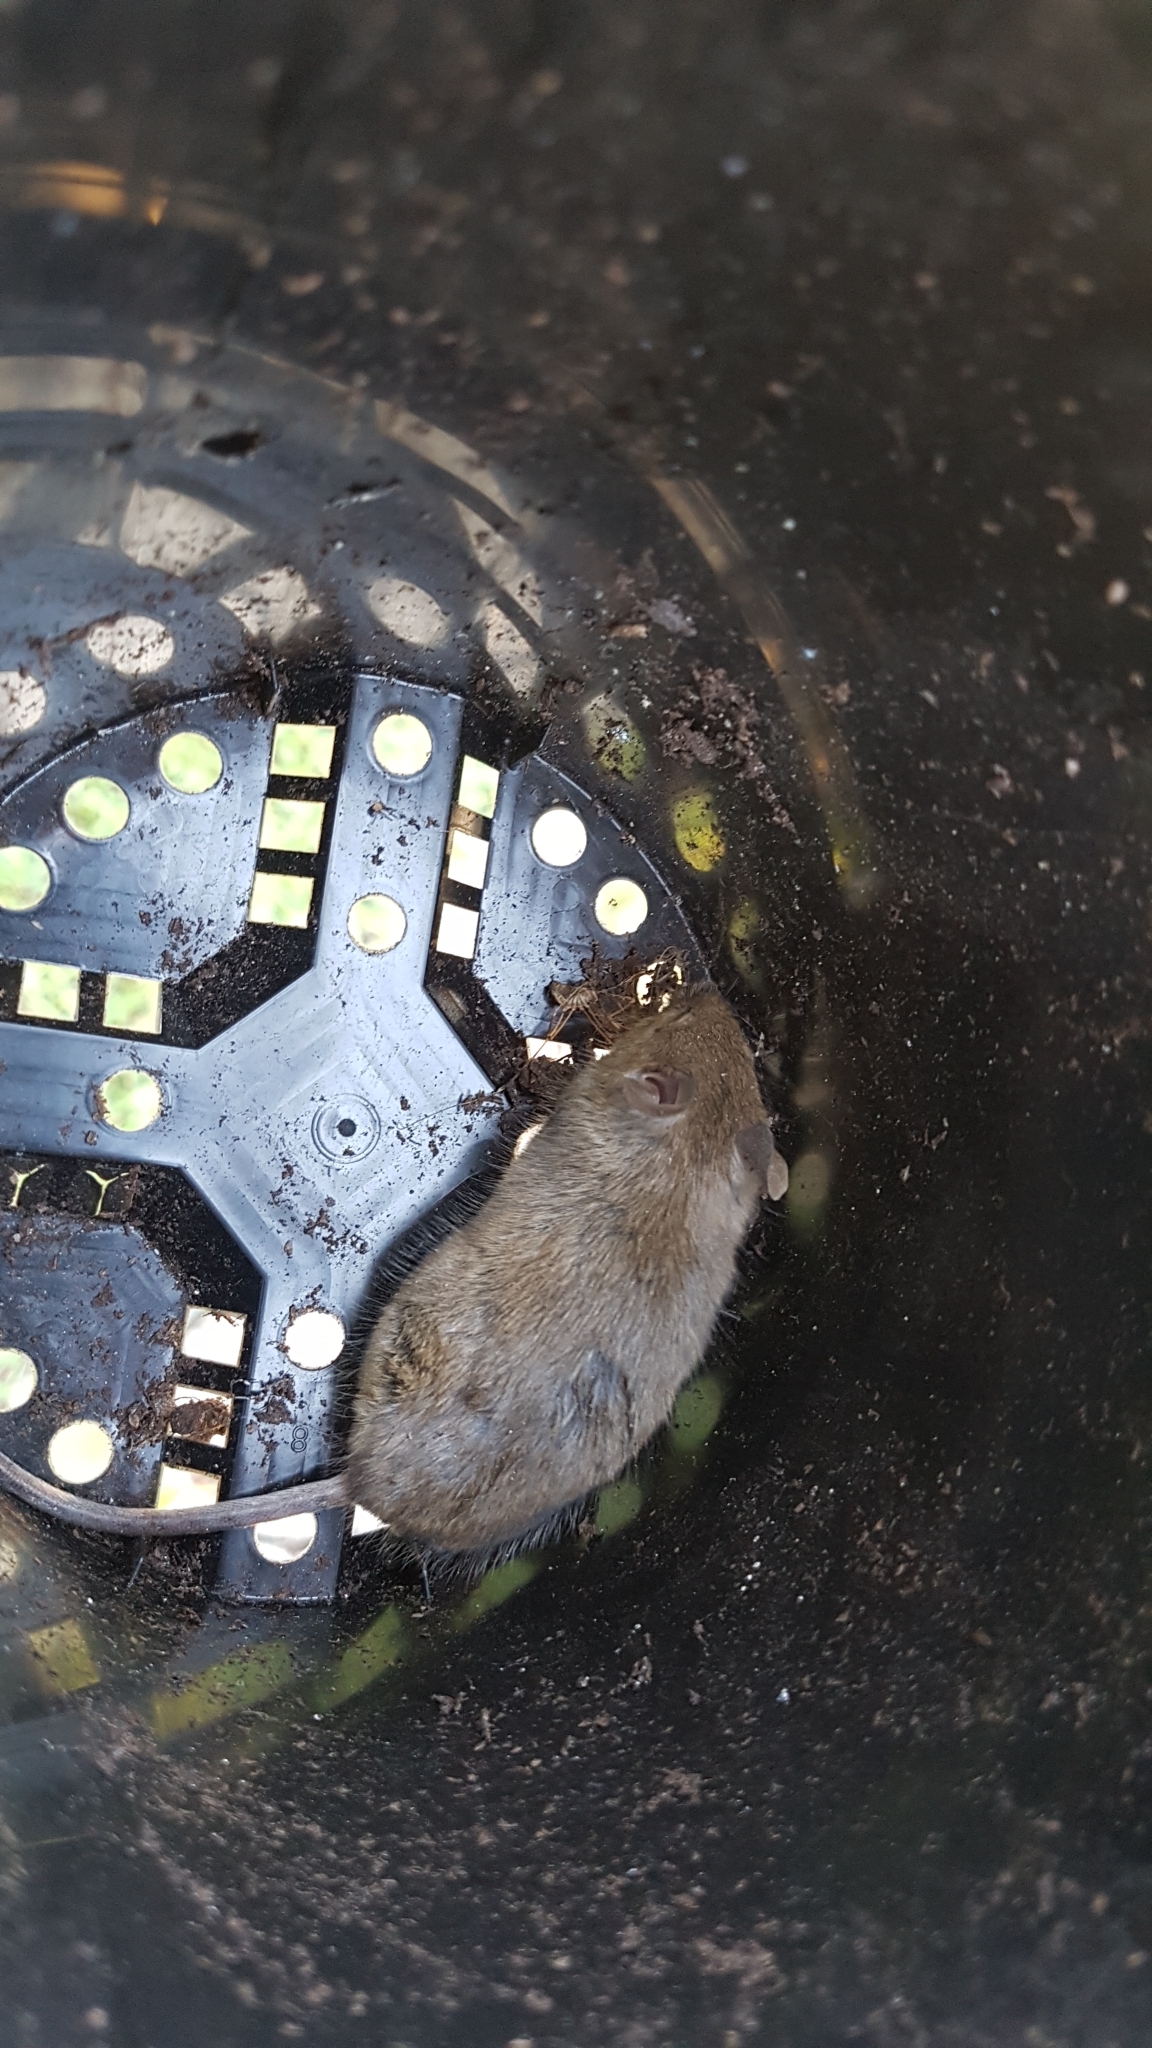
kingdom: Animalia
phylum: Chordata
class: Mammalia
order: Rodentia
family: Muridae
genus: Mus
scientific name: Mus musculus
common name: House mouse
